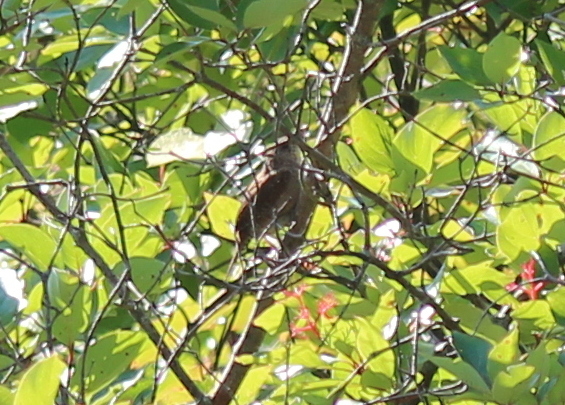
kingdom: Animalia
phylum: Chordata
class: Aves
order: Passeriformes
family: Troglodytidae
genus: Troglodytes
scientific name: Troglodytes aedon
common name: House wren
